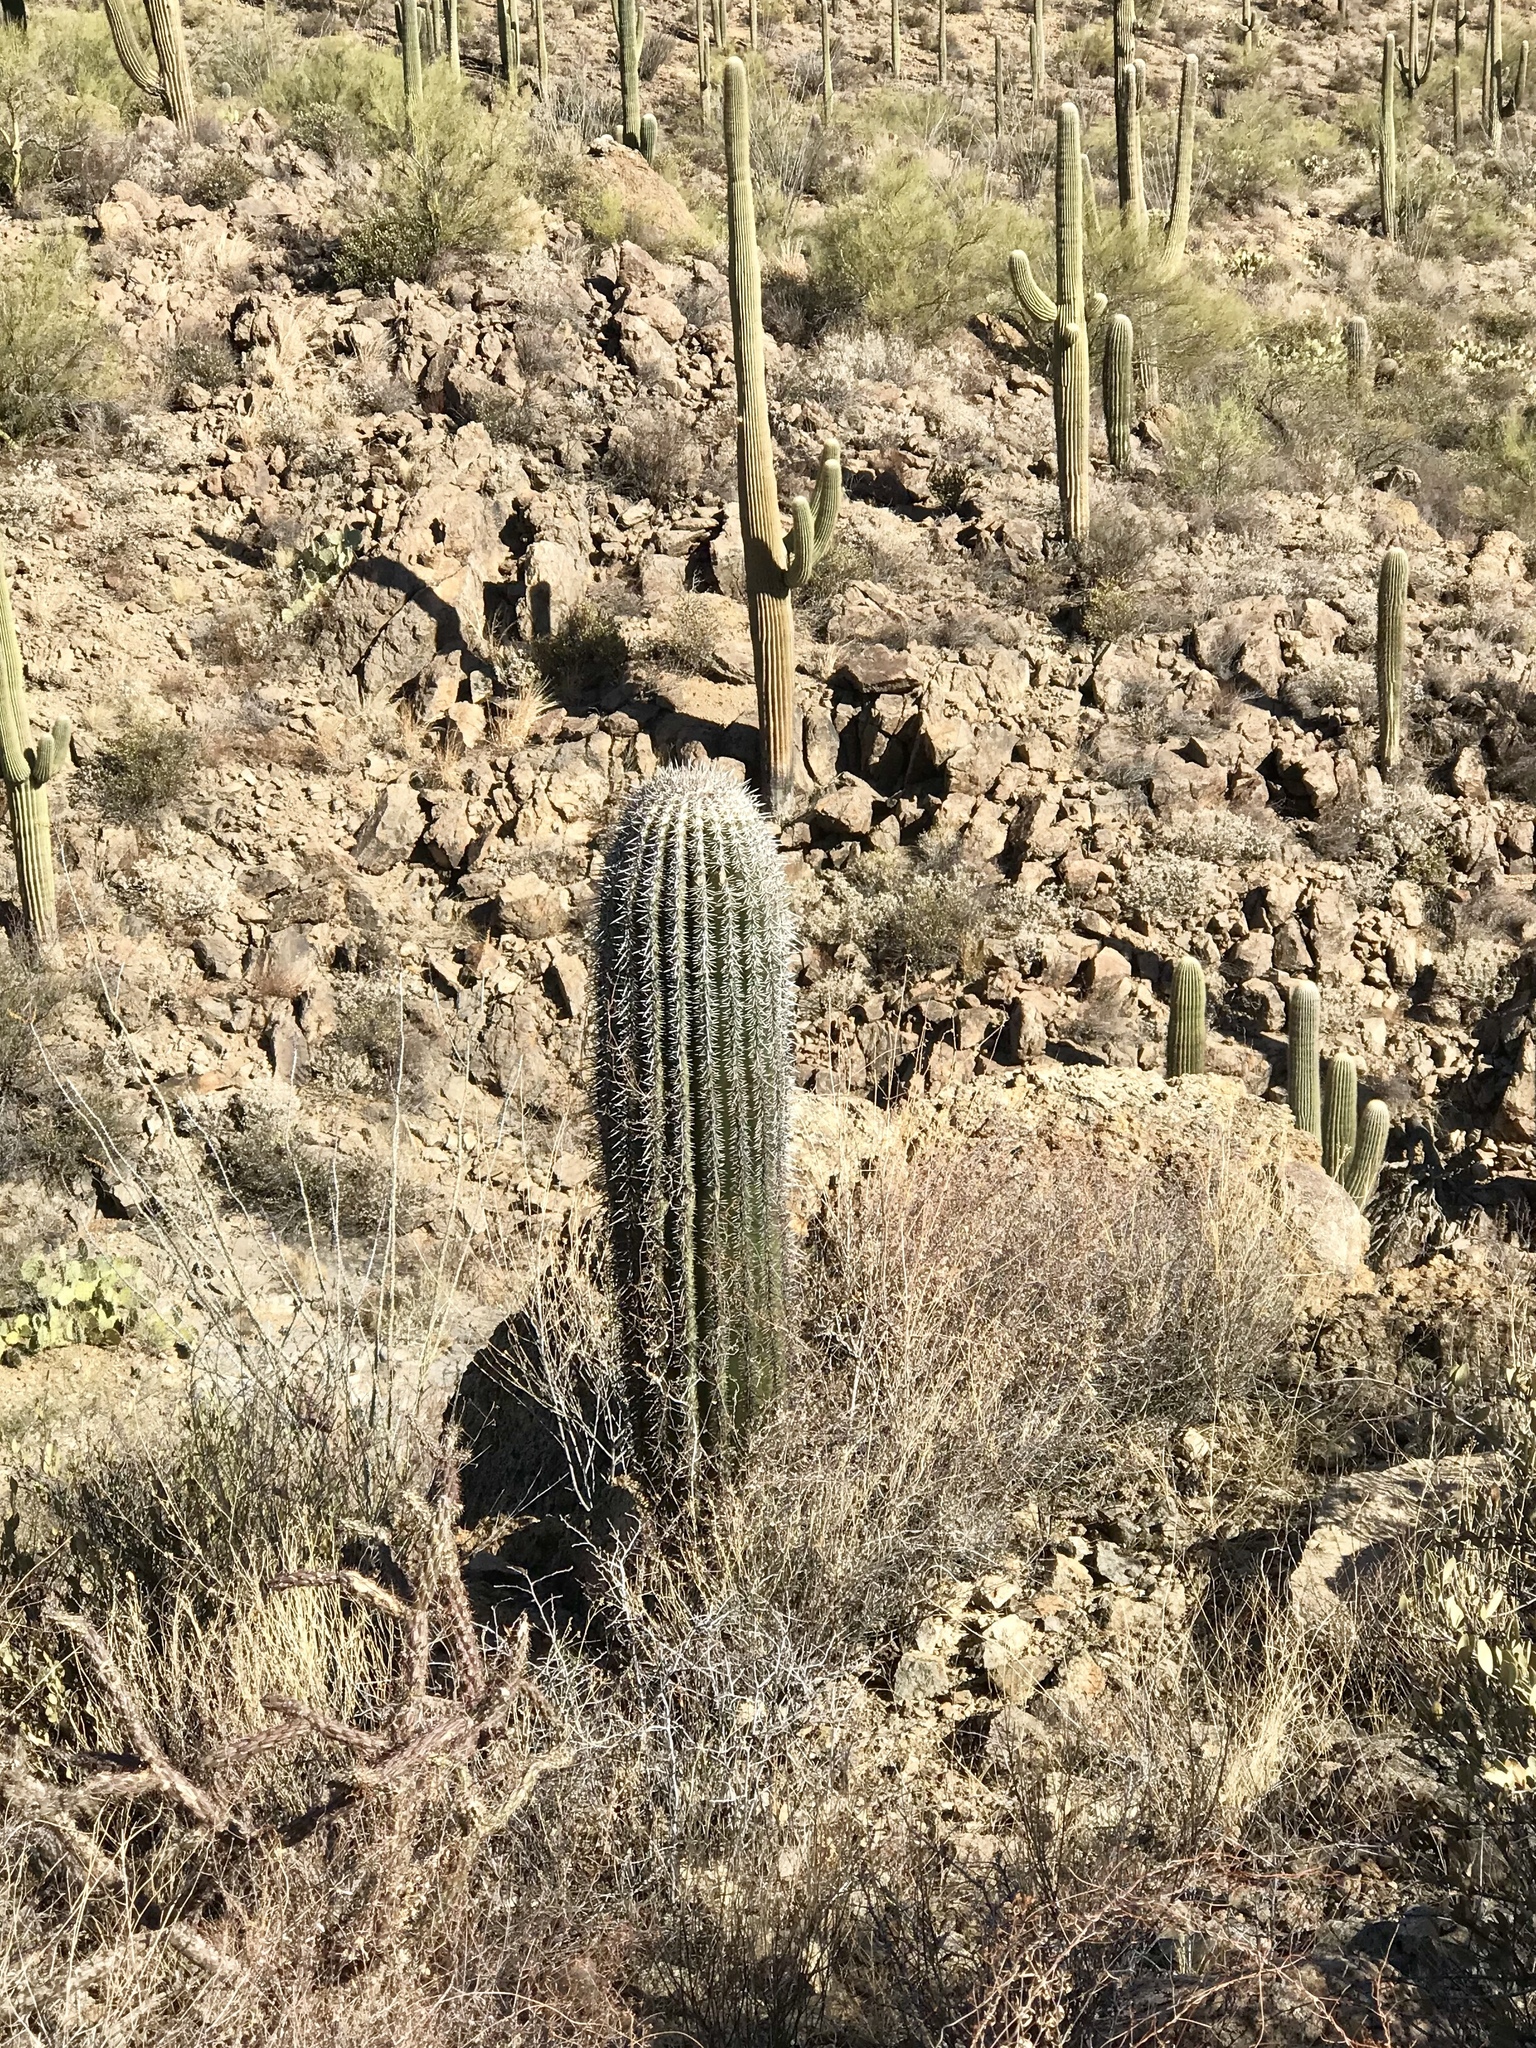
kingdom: Plantae
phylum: Tracheophyta
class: Magnoliopsida
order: Caryophyllales
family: Cactaceae
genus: Carnegiea
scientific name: Carnegiea gigantea
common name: Saguaro
